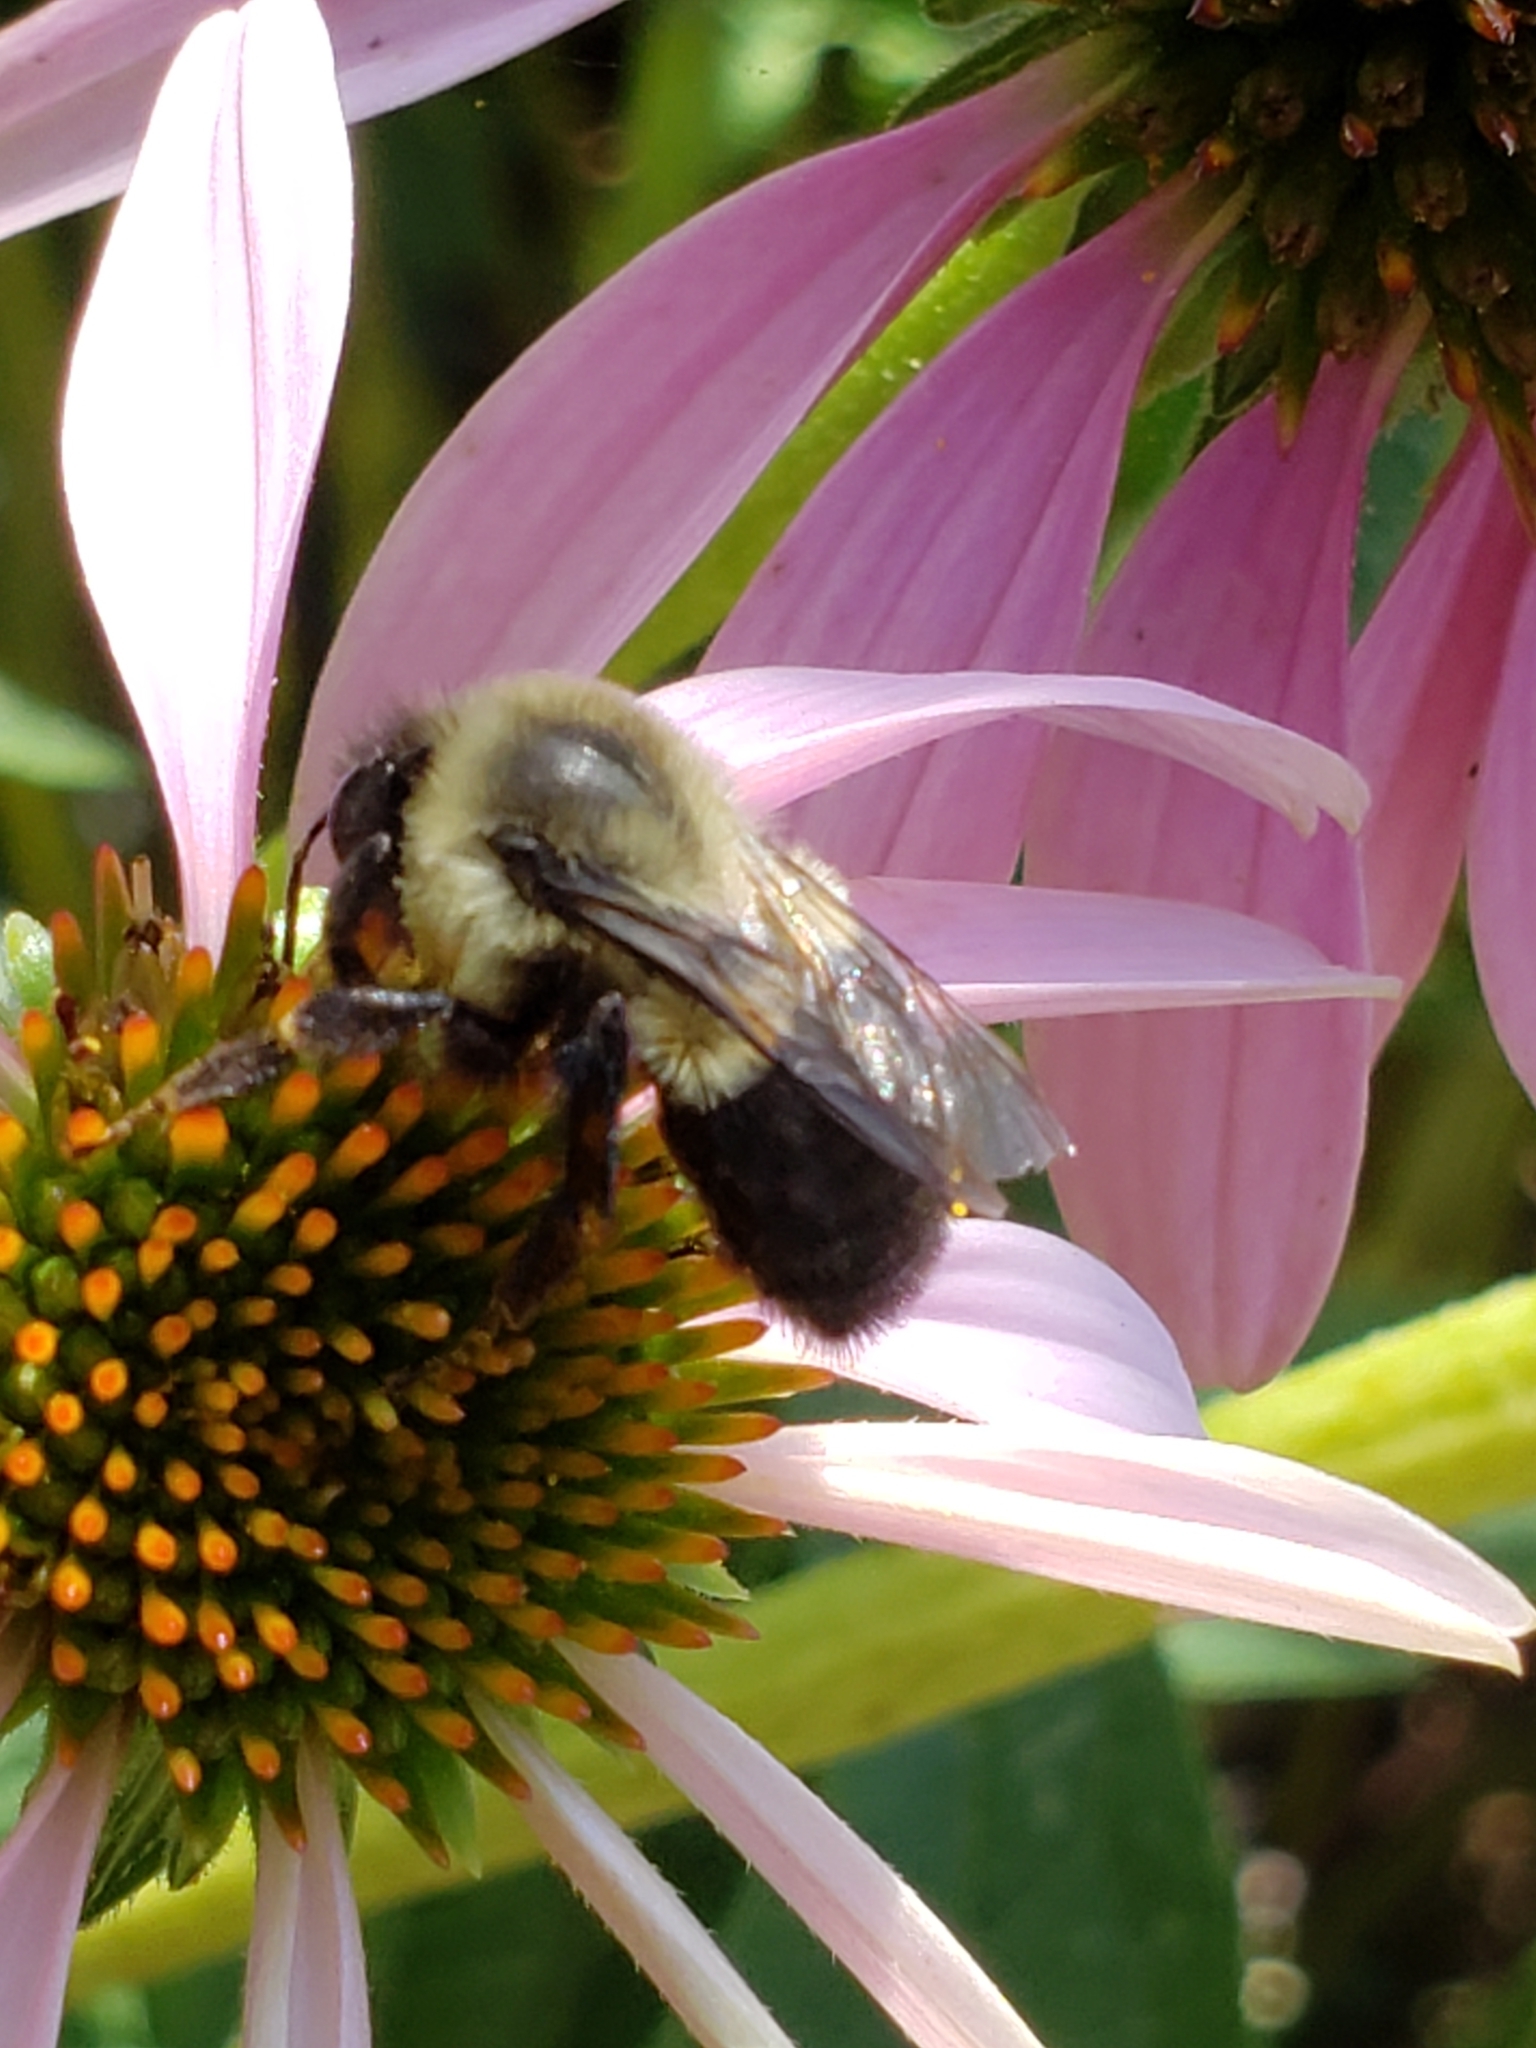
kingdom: Animalia
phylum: Arthropoda
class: Insecta
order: Hymenoptera
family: Apidae
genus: Bombus
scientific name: Bombus impatiens
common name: Common eastern bumble bee
